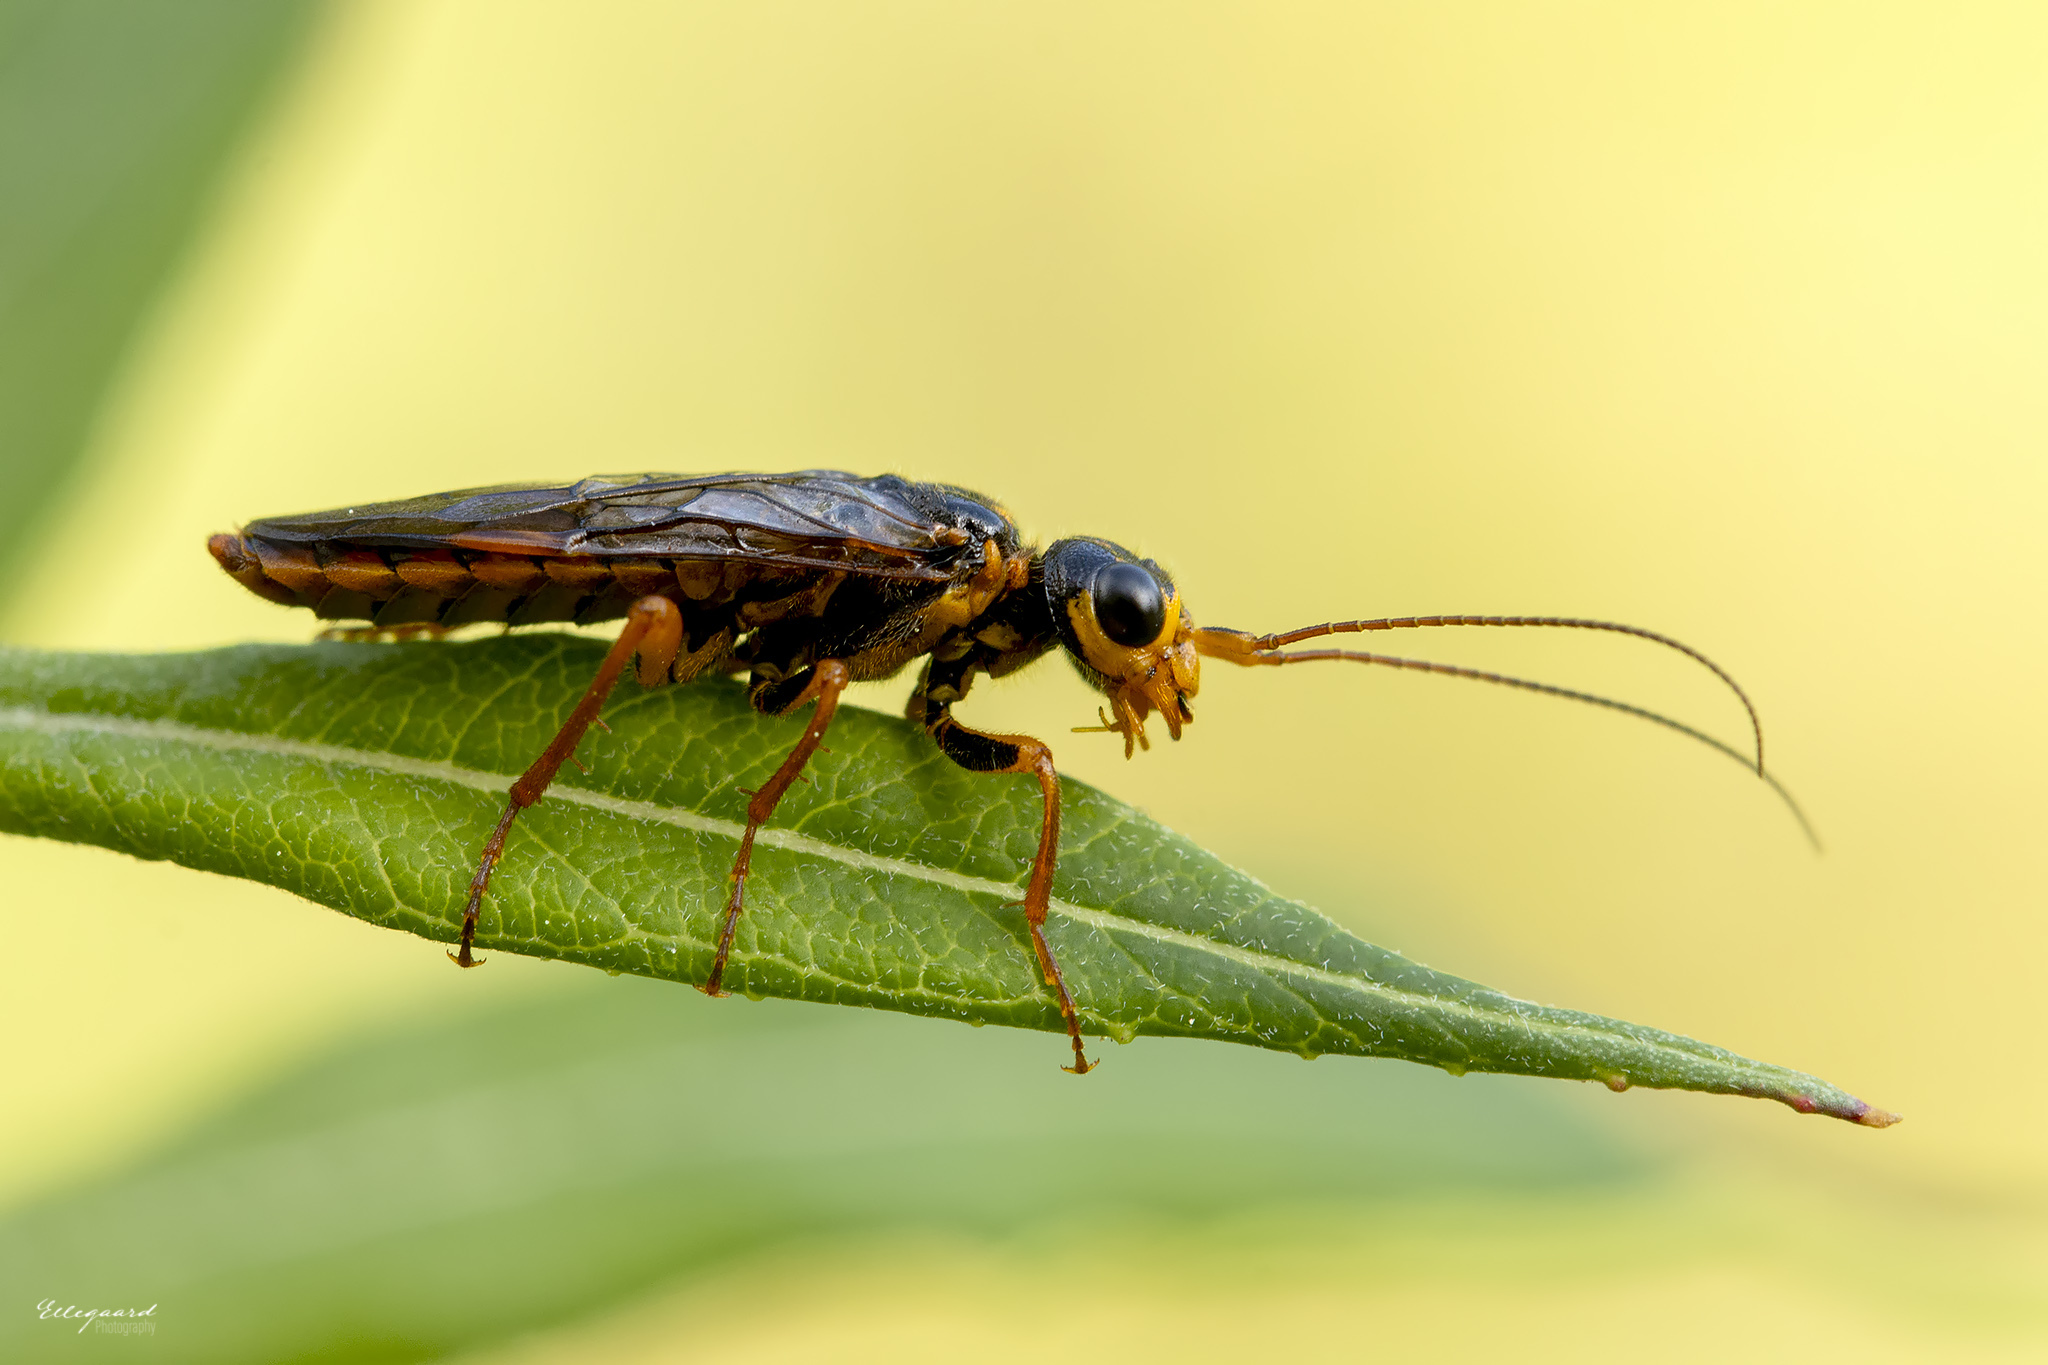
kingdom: Animalia
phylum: Arthropoda
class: Insecta
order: Hymenoptera
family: Pamphiliidae
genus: Acantholyda
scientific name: Acantholyda posticalis
